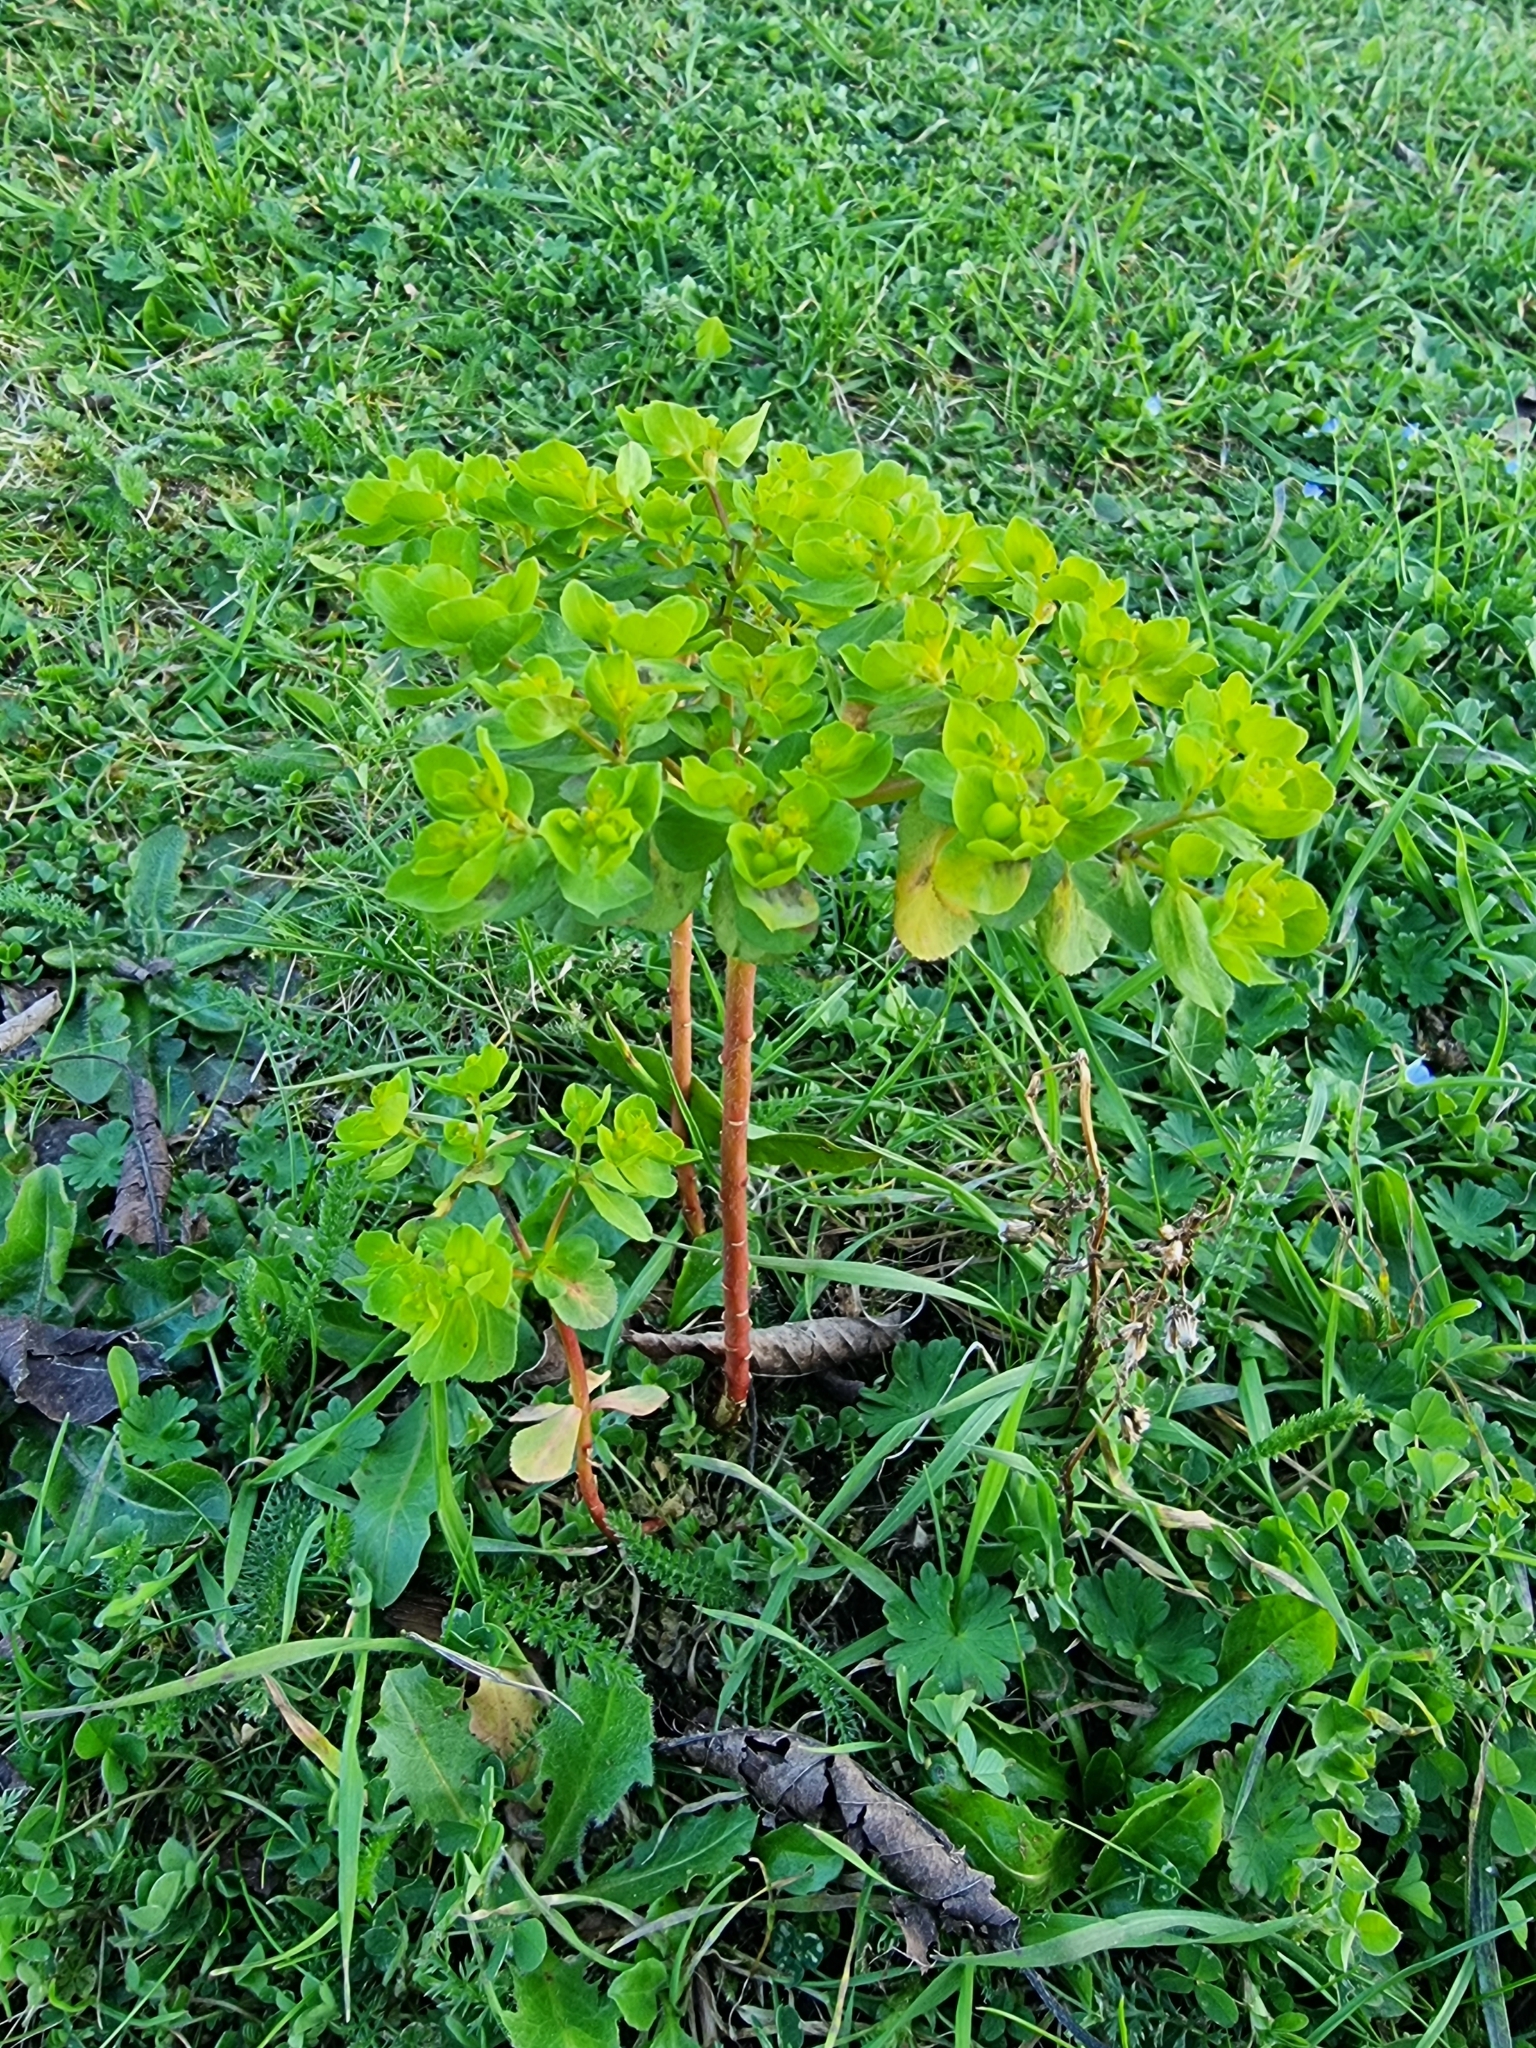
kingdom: Plantae
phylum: Tracheophyta
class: Magnoliopsida
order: Malpighiales
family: Euphorbiaceae
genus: Euphorbia
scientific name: Euphorbia helioscopia
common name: Sun spurge
